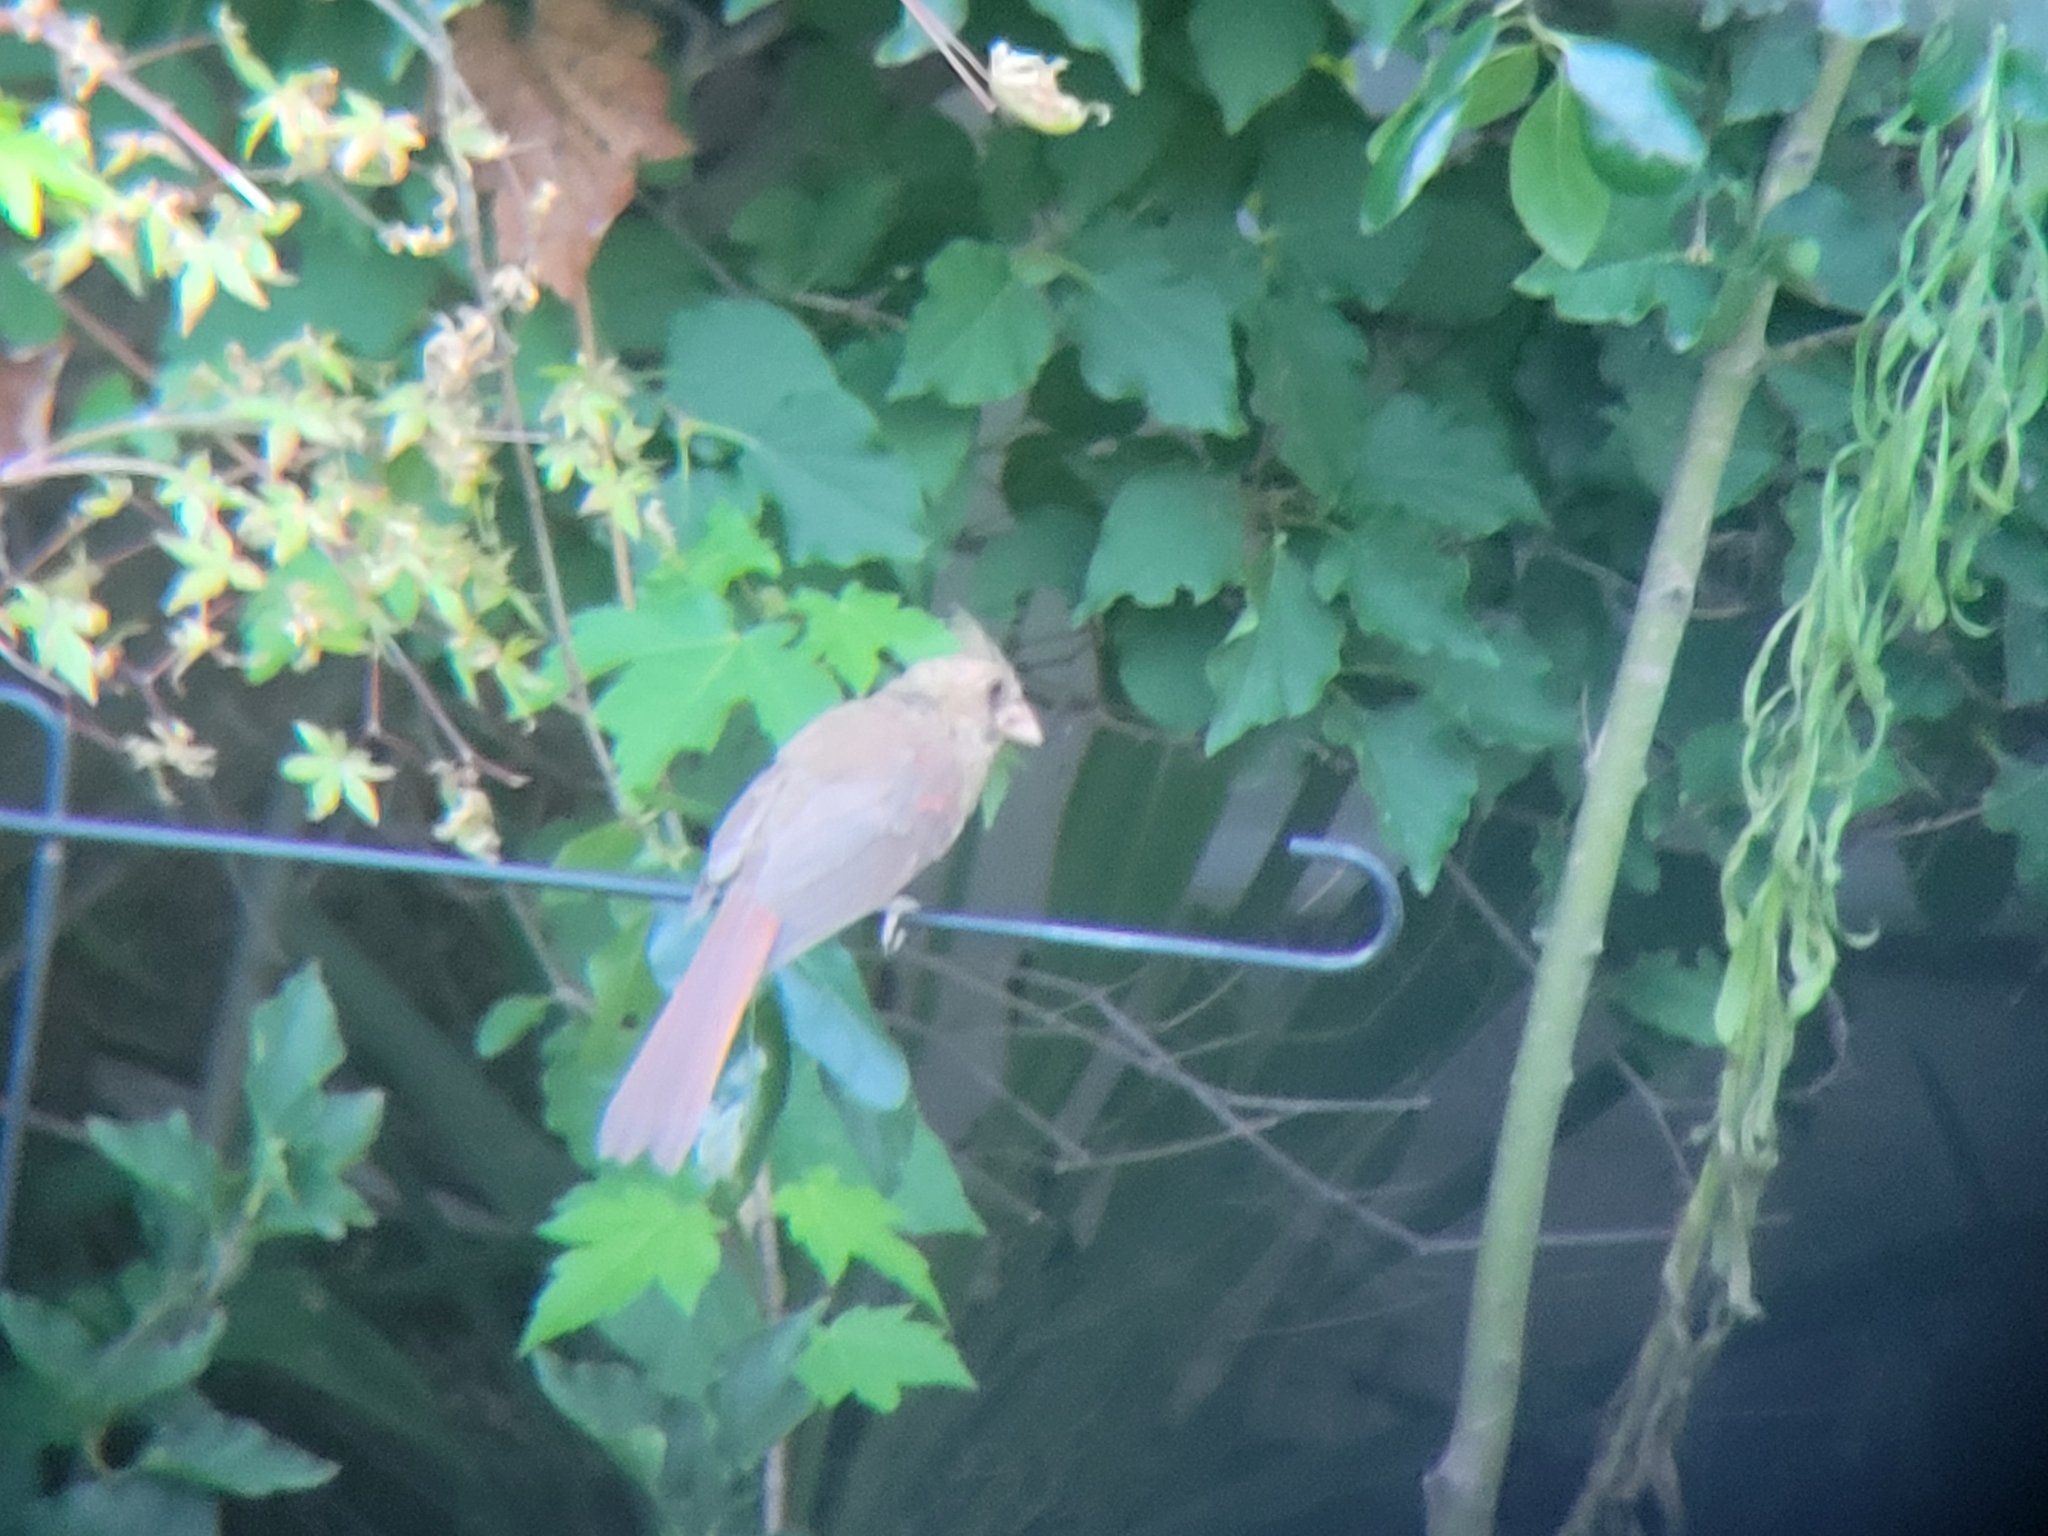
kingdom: Animalia
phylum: Chordata
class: Aves
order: Passeriformes
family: Cardinalidae
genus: Cardinalis
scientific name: Cardinalis cardinalis
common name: Northern cardinal
